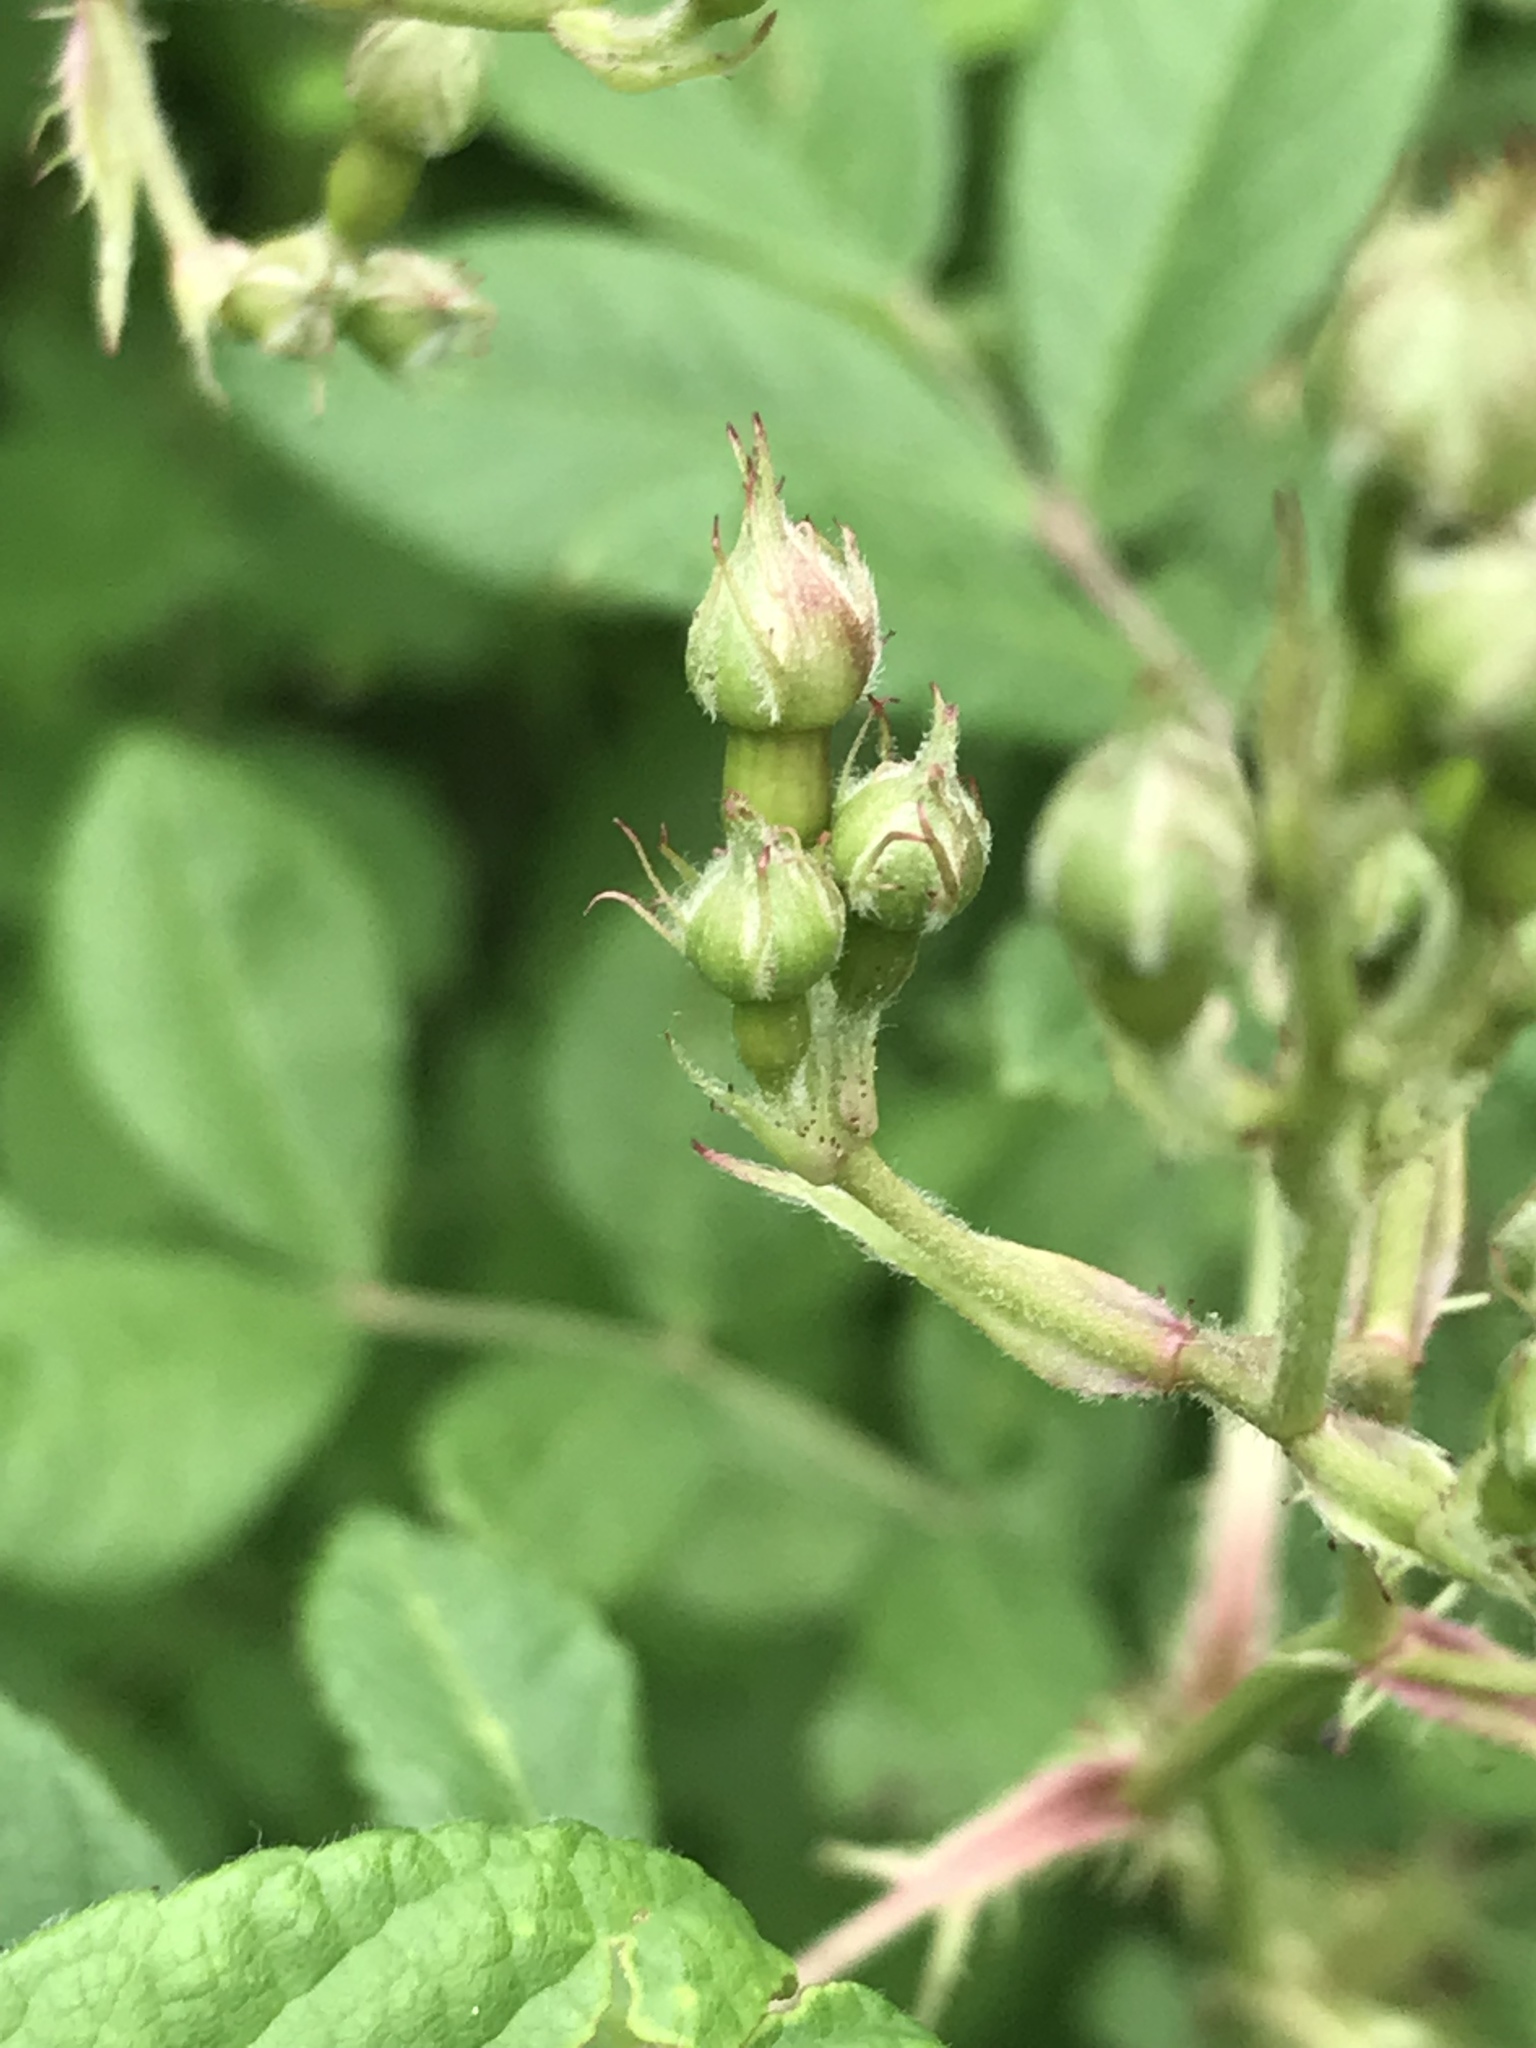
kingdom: Plantae
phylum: Tracheophyta
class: Magnoliopsida
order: Rosales
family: Rosaceae
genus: Rosa
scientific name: Rosa multiflora
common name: Multiflora rose
